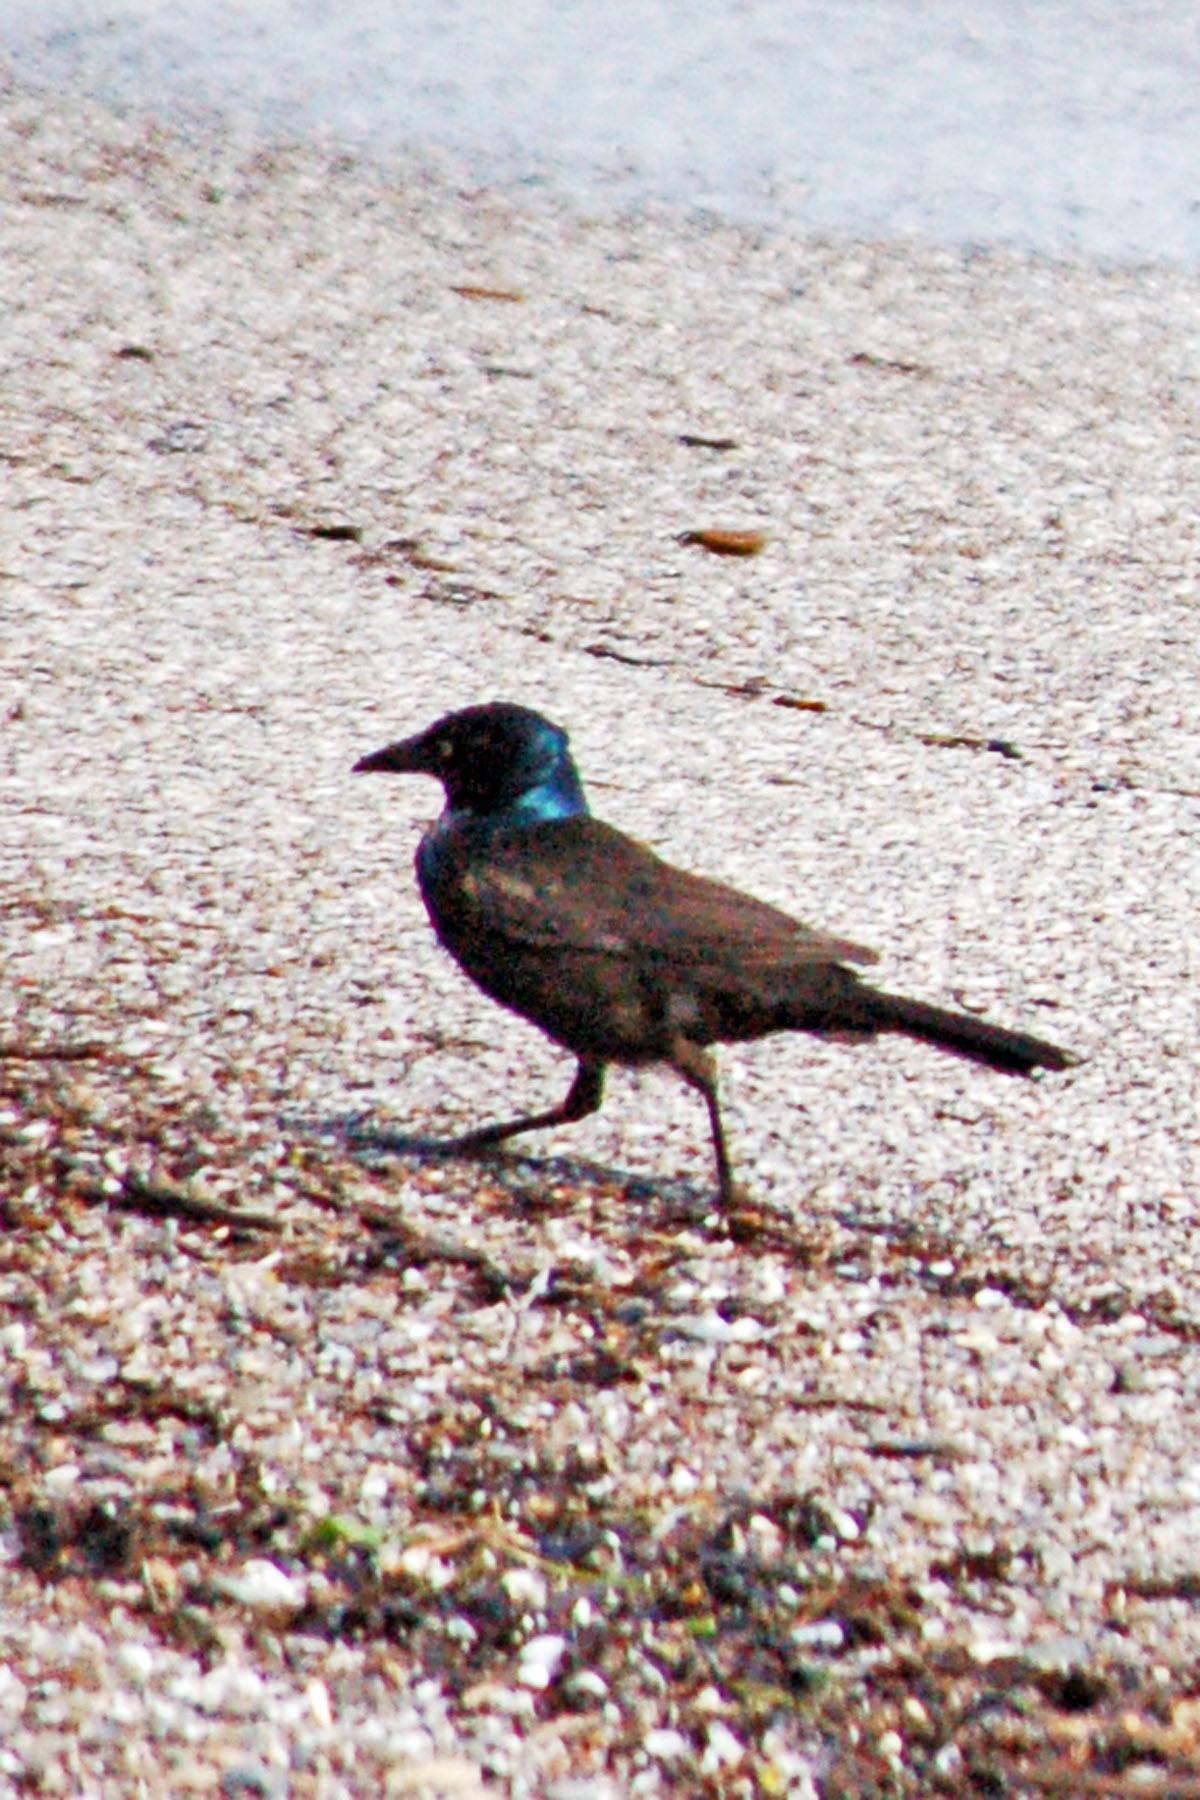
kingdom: Animalia
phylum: Chordata
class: Aves
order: Passeriformes
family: Icteridae
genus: Quiscalus
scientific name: Quiscalus quiscula
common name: Common grackle
